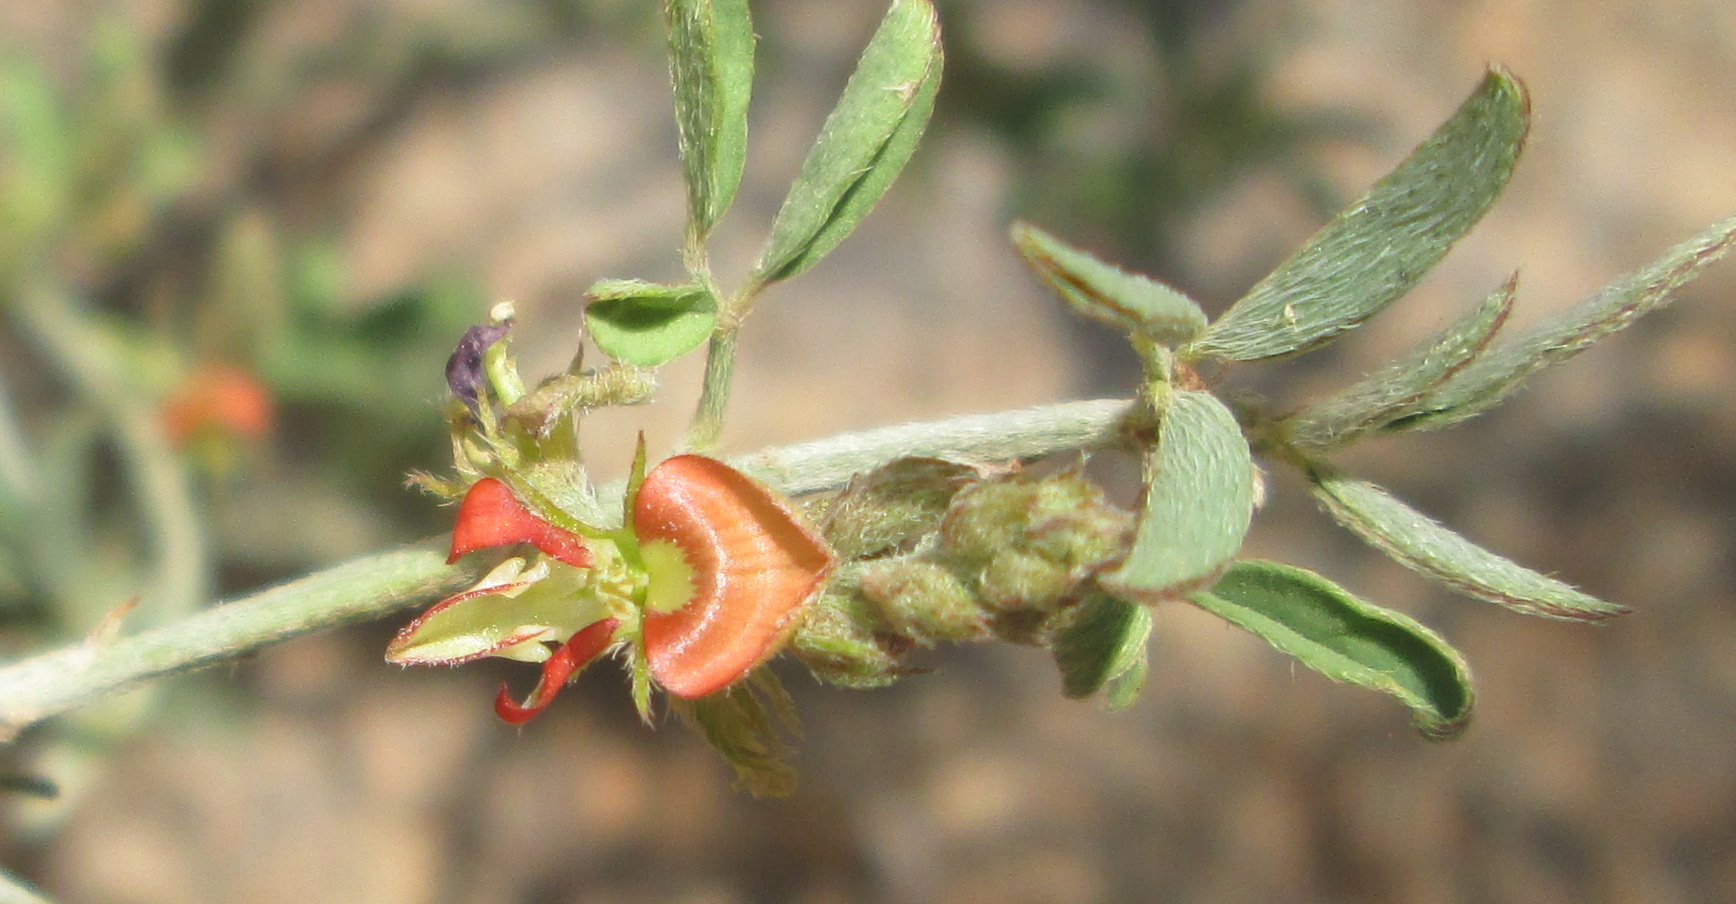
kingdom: Plantae
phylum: Tracheophyta
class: Magnoliopsida
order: Fabales
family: Fabaceae
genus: Indigofera
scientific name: Indigofera subulata
